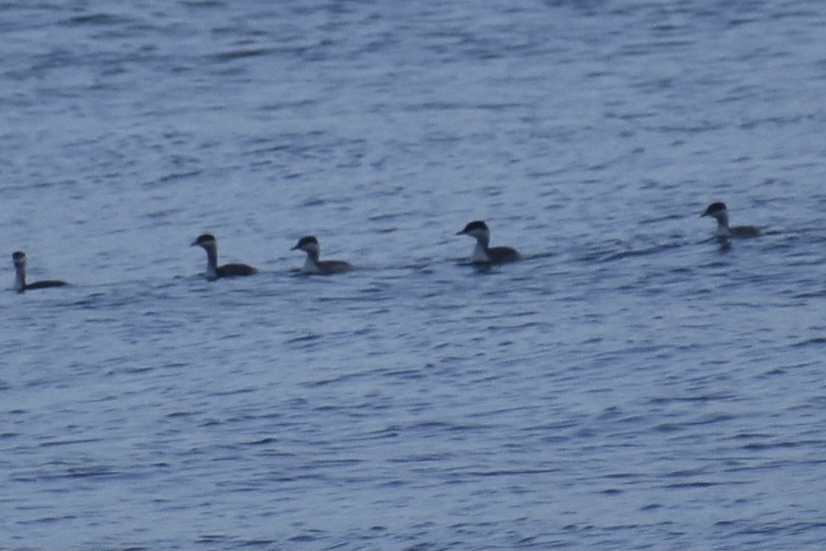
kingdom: Animalia
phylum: Chordata
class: Aves
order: Podicipediformes
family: Podicipedidae
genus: Podiceps
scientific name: Podiceps auritus
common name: Horned grebe
